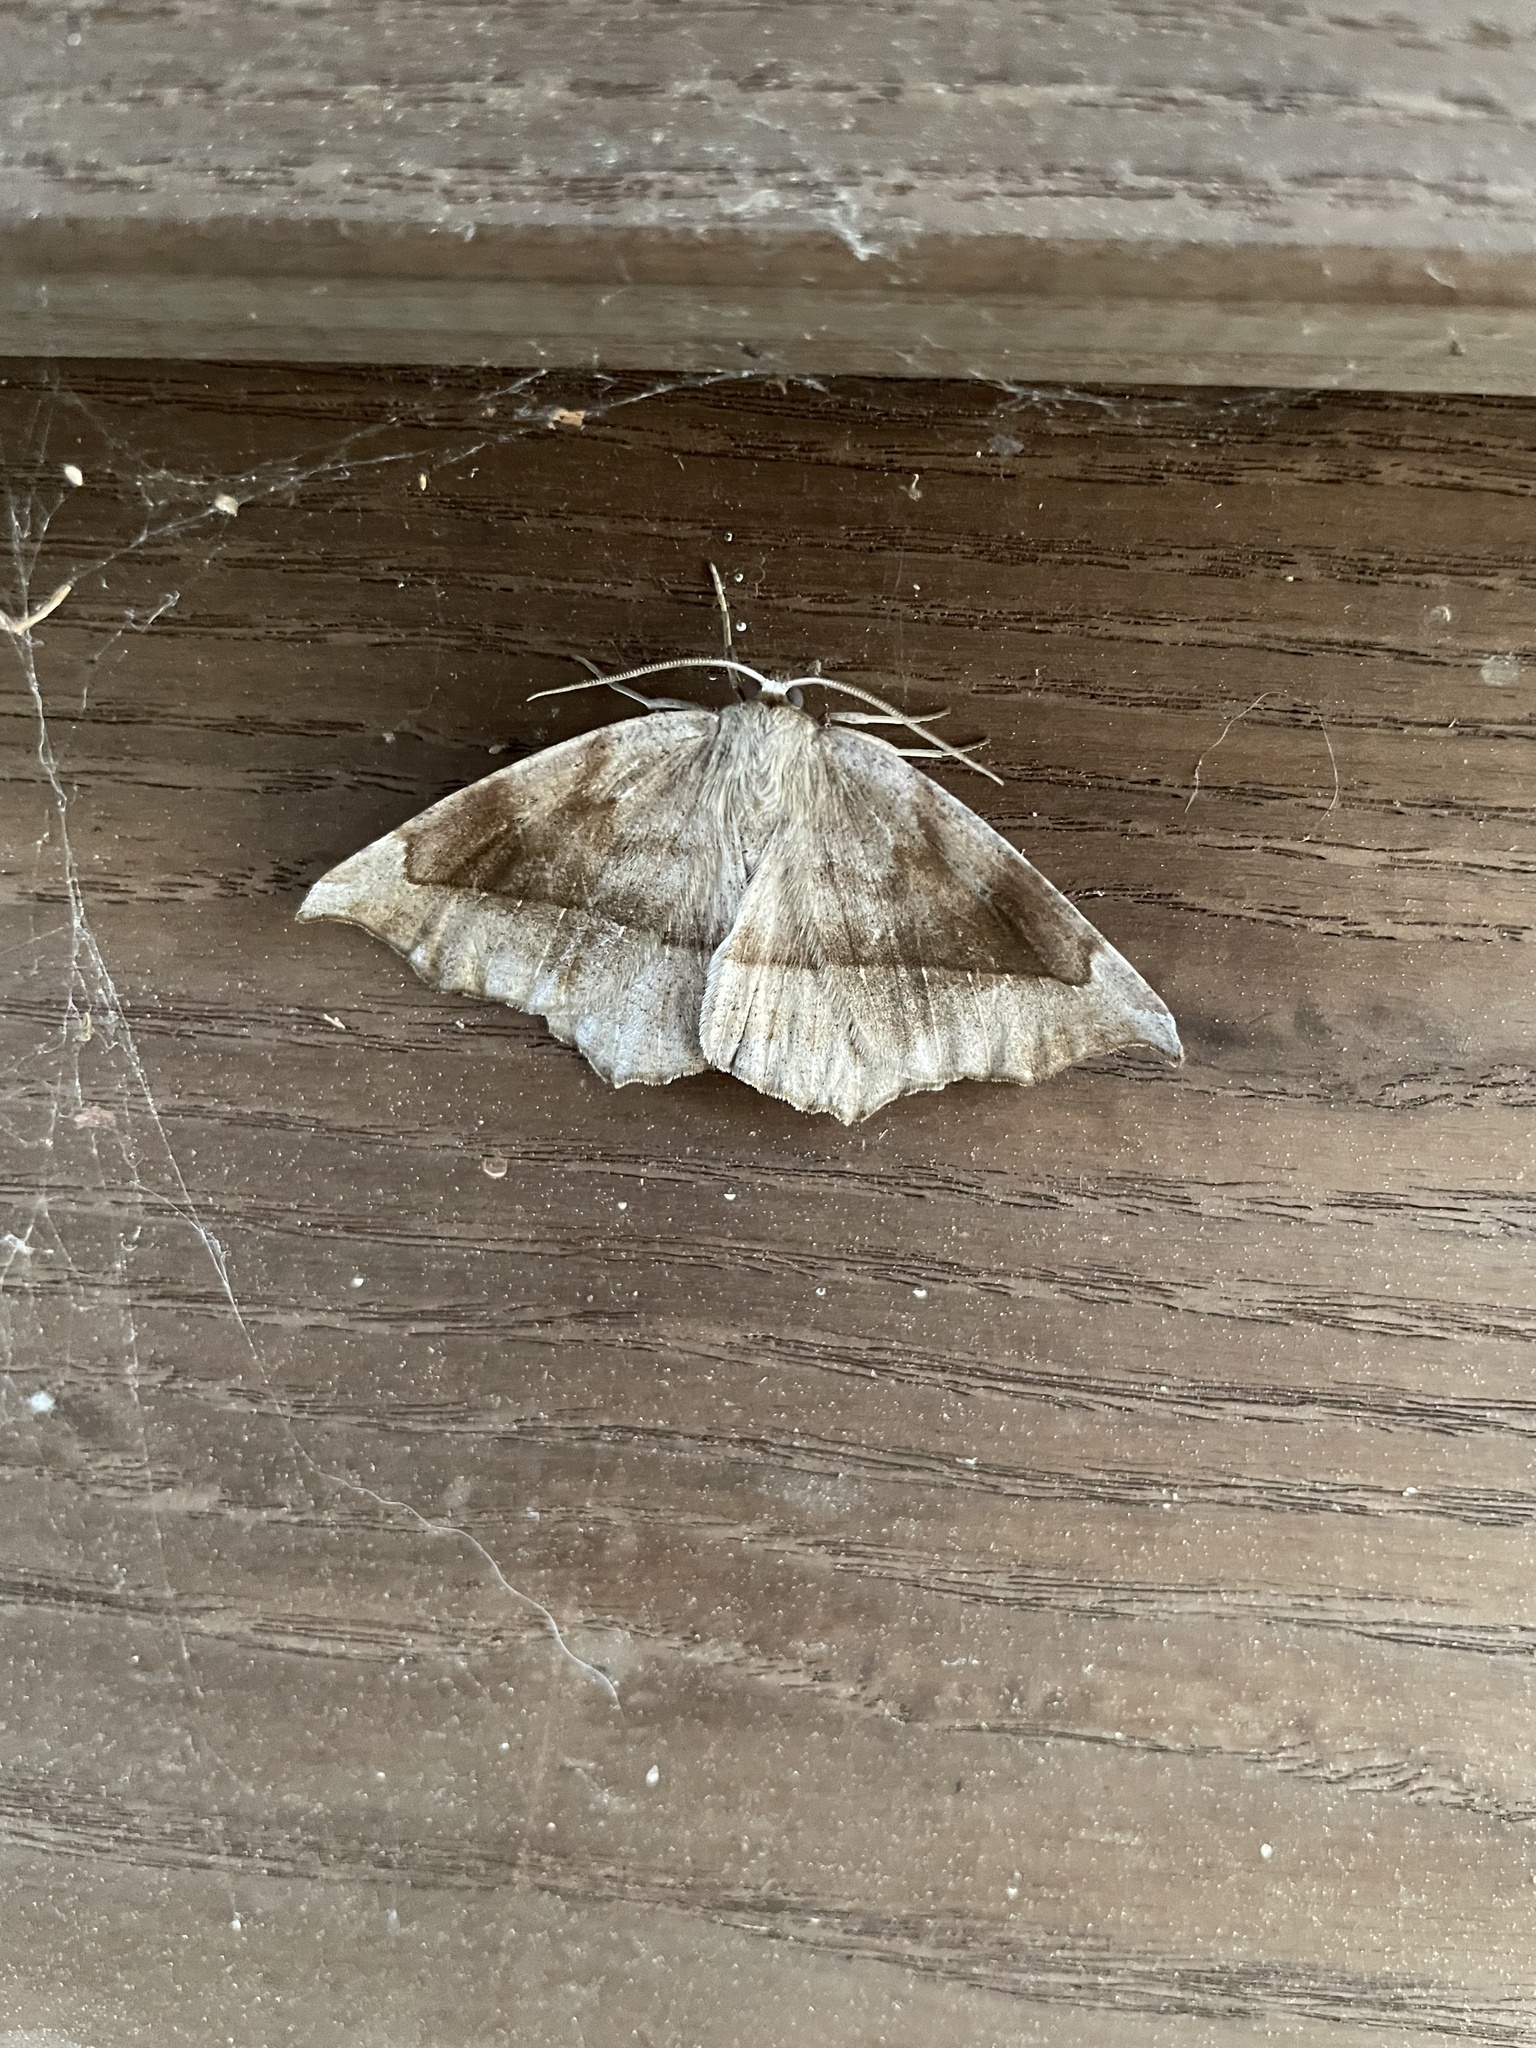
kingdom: Animalia
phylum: Arthropoda
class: Insecta
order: Lepidoptera
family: Geometridae
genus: Eutrapela
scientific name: Eutrapela clemataria
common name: Curved-toothed geometer
